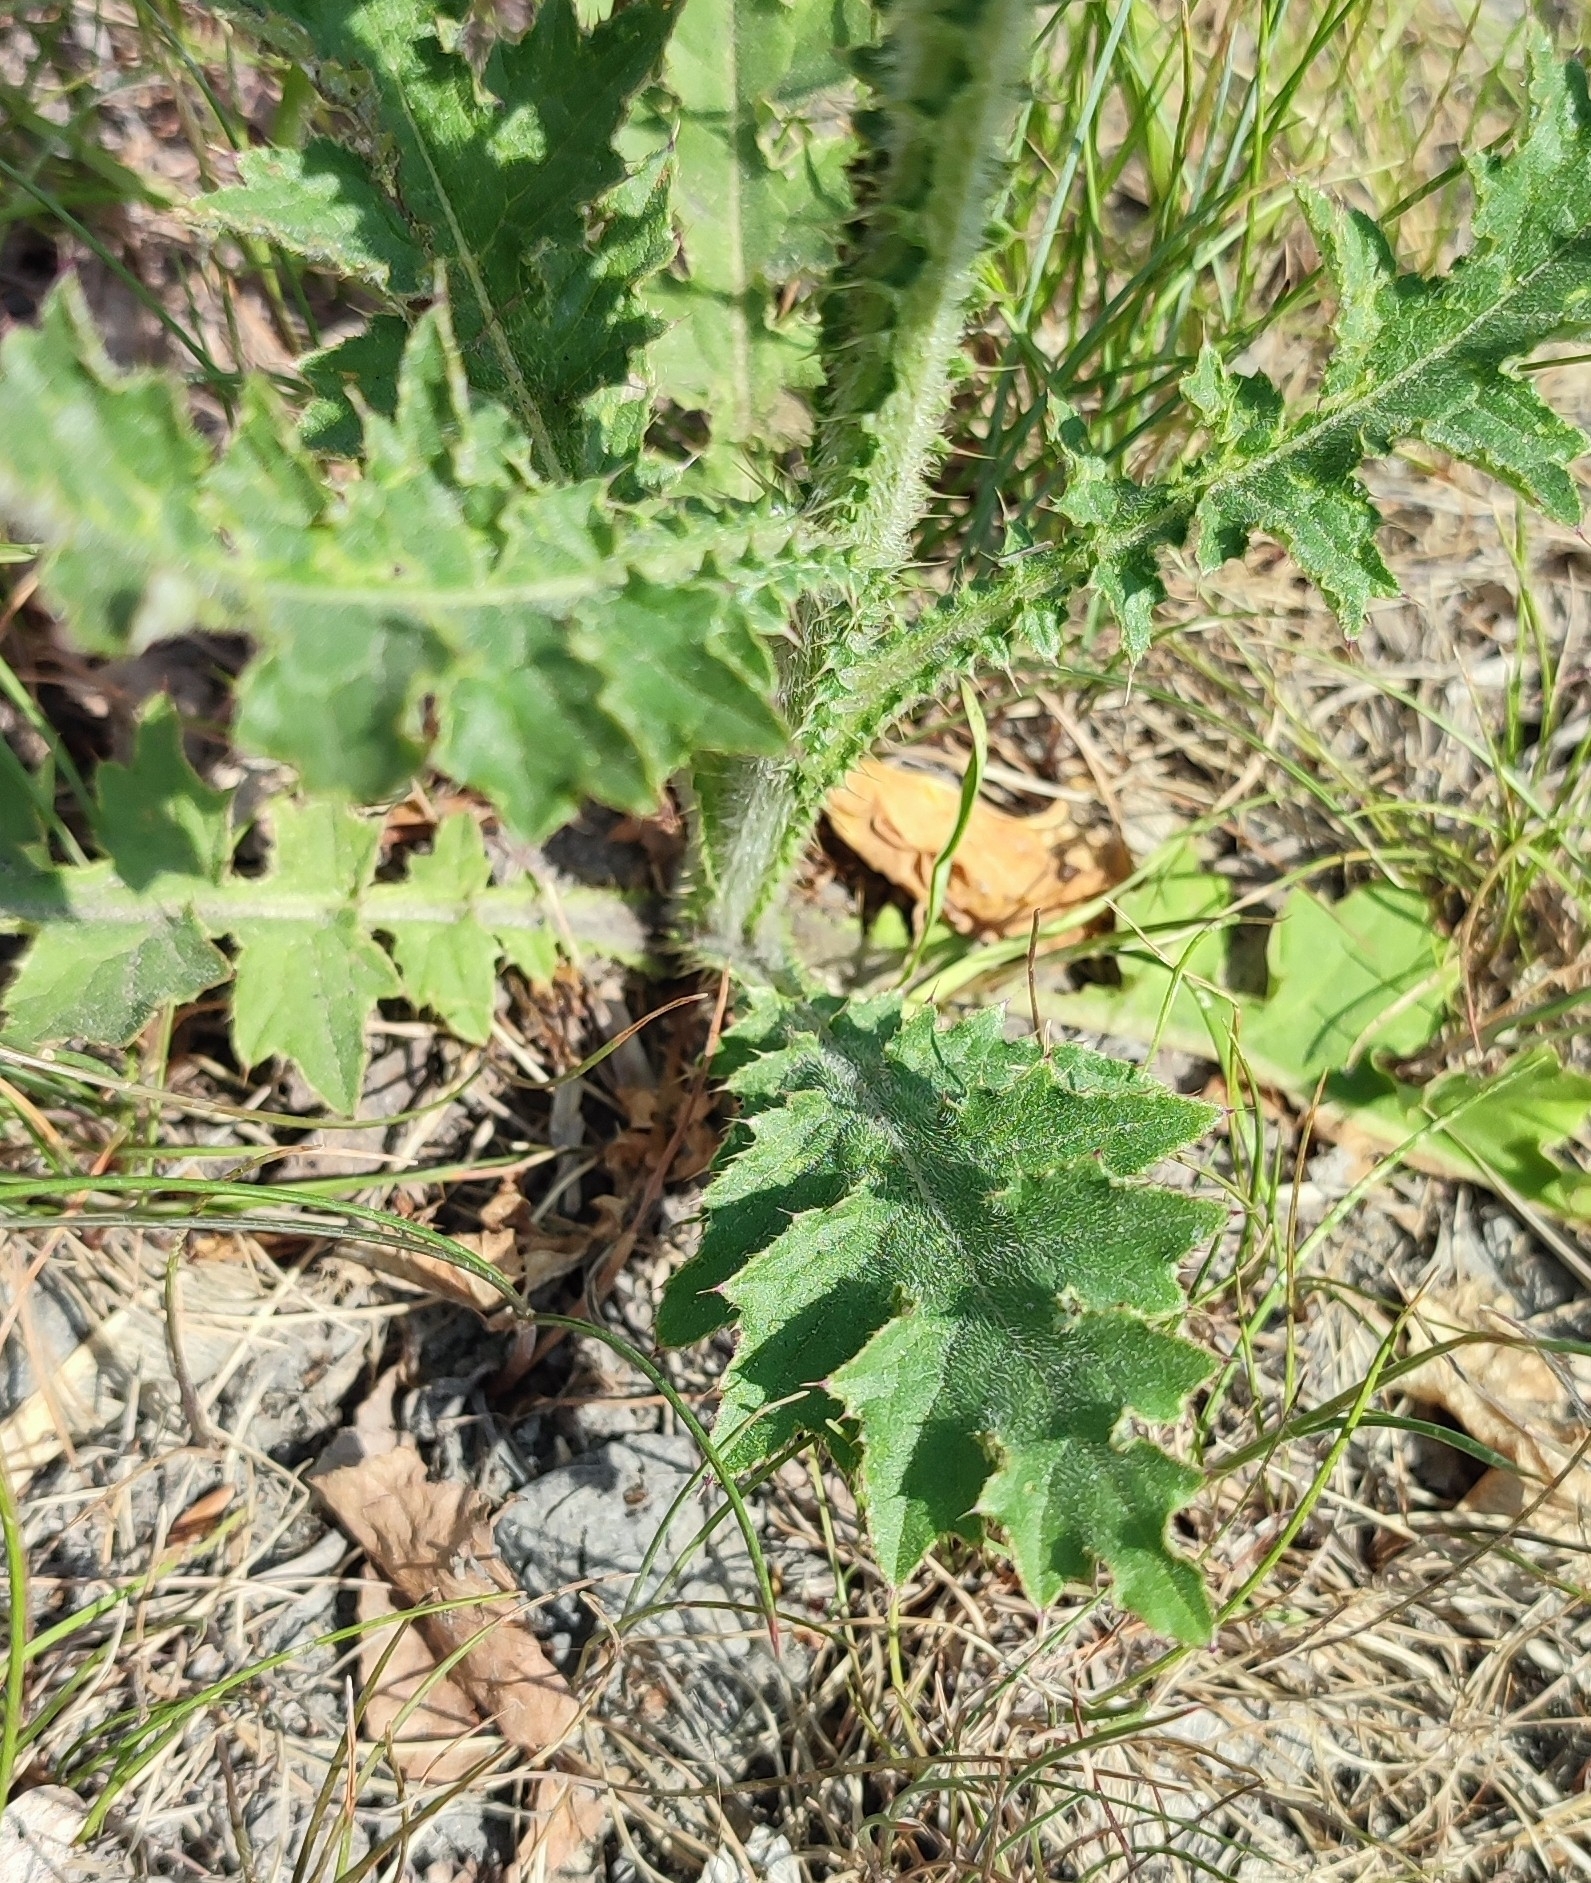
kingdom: Plantae
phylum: Tracheophyta
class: Magnoliopsida
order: Asterales
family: Asteraceae
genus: Carduus
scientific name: Carduus crispus
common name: Welted thistle
